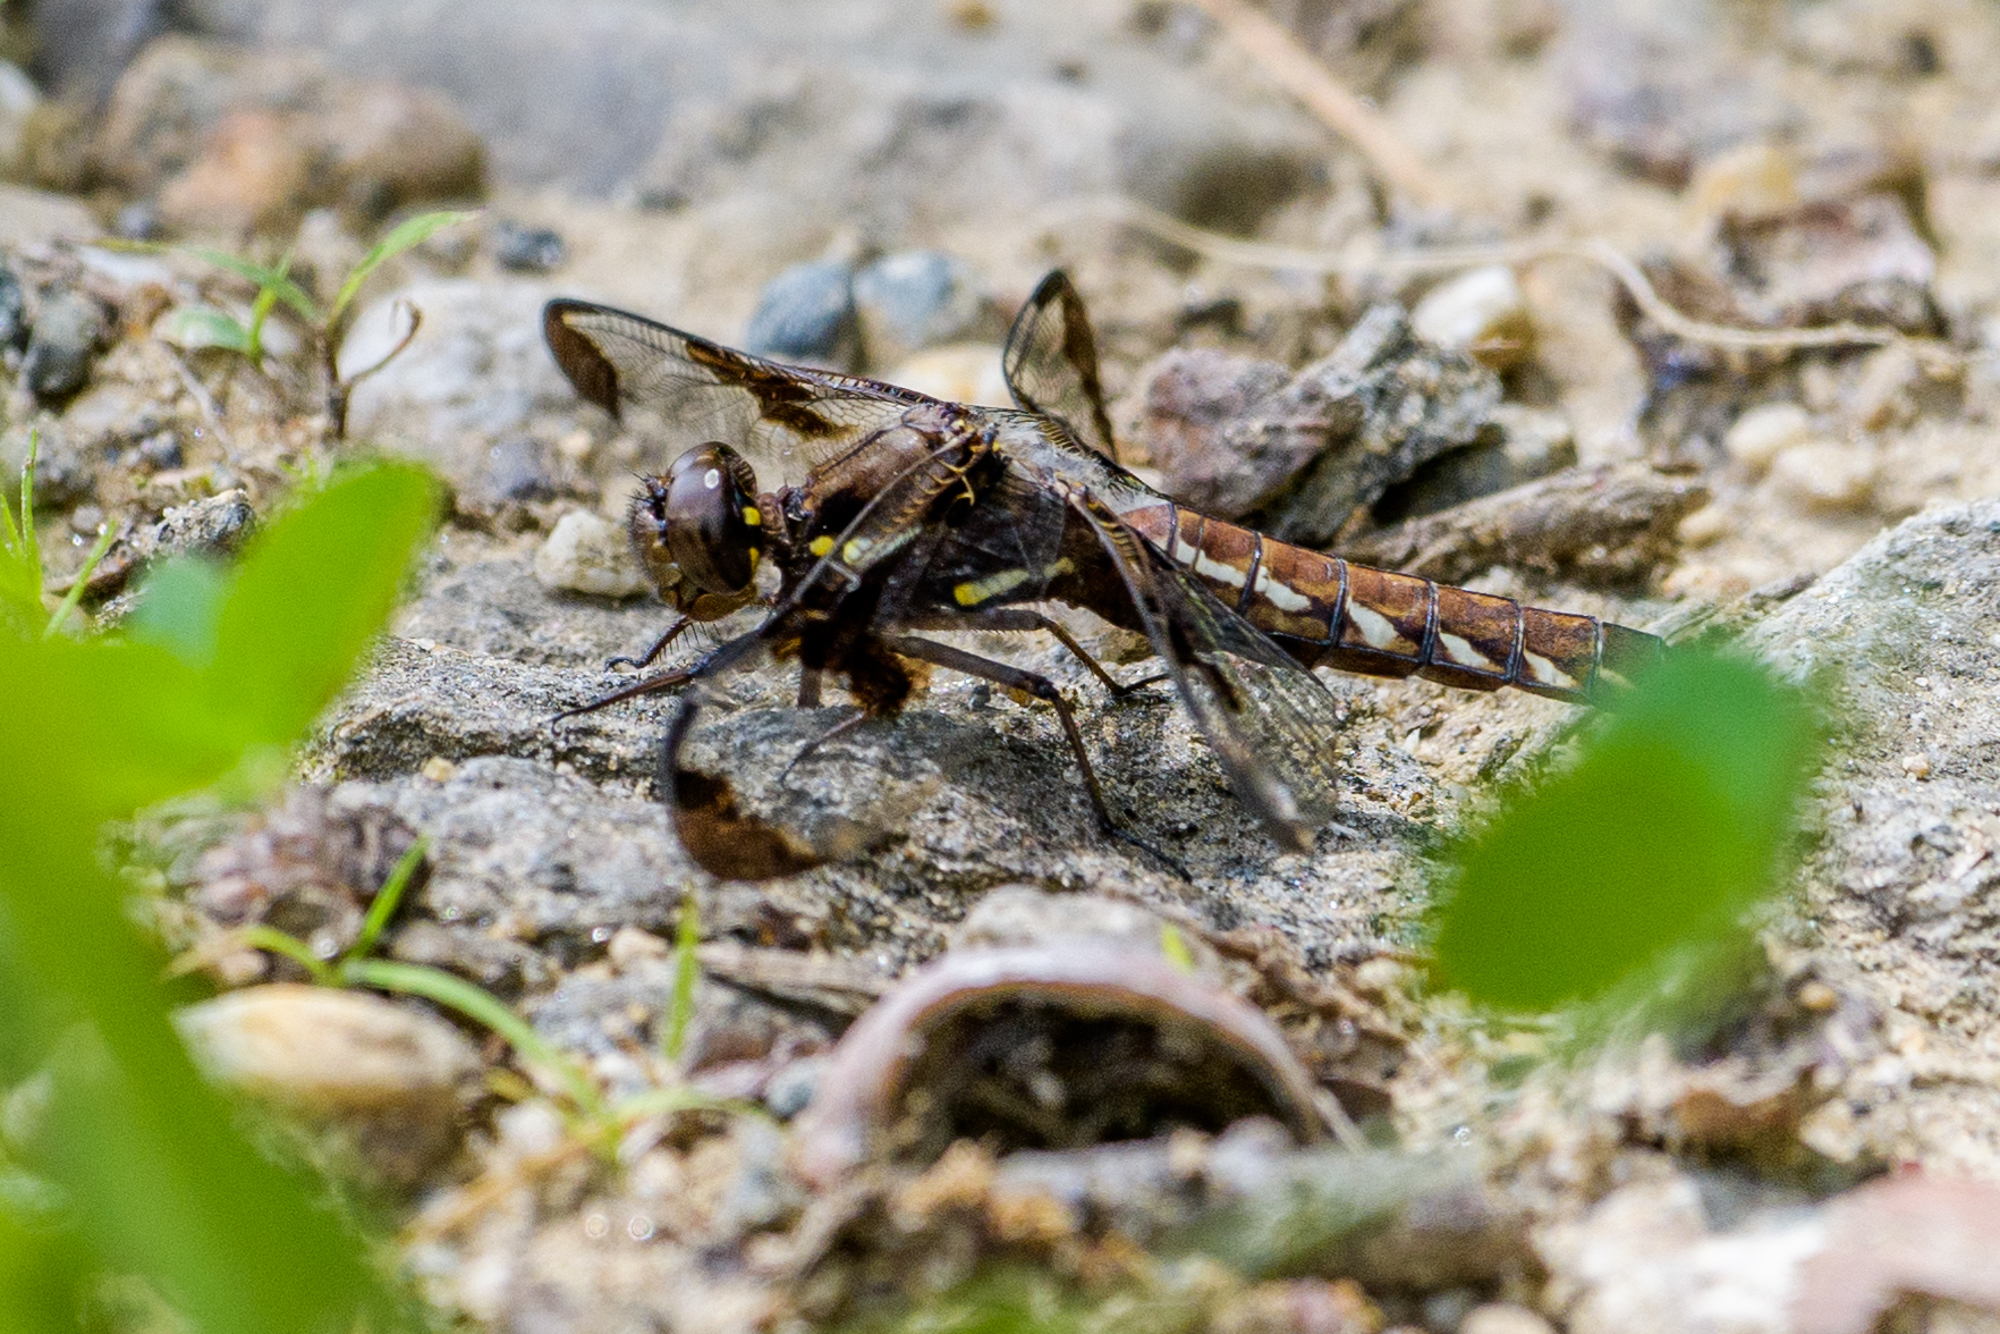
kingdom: Animalia
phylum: Arthropoda
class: Insecta
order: Odonata
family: Libellulidae
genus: Plathemis
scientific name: Plathemis lydia
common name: Common whitetail
